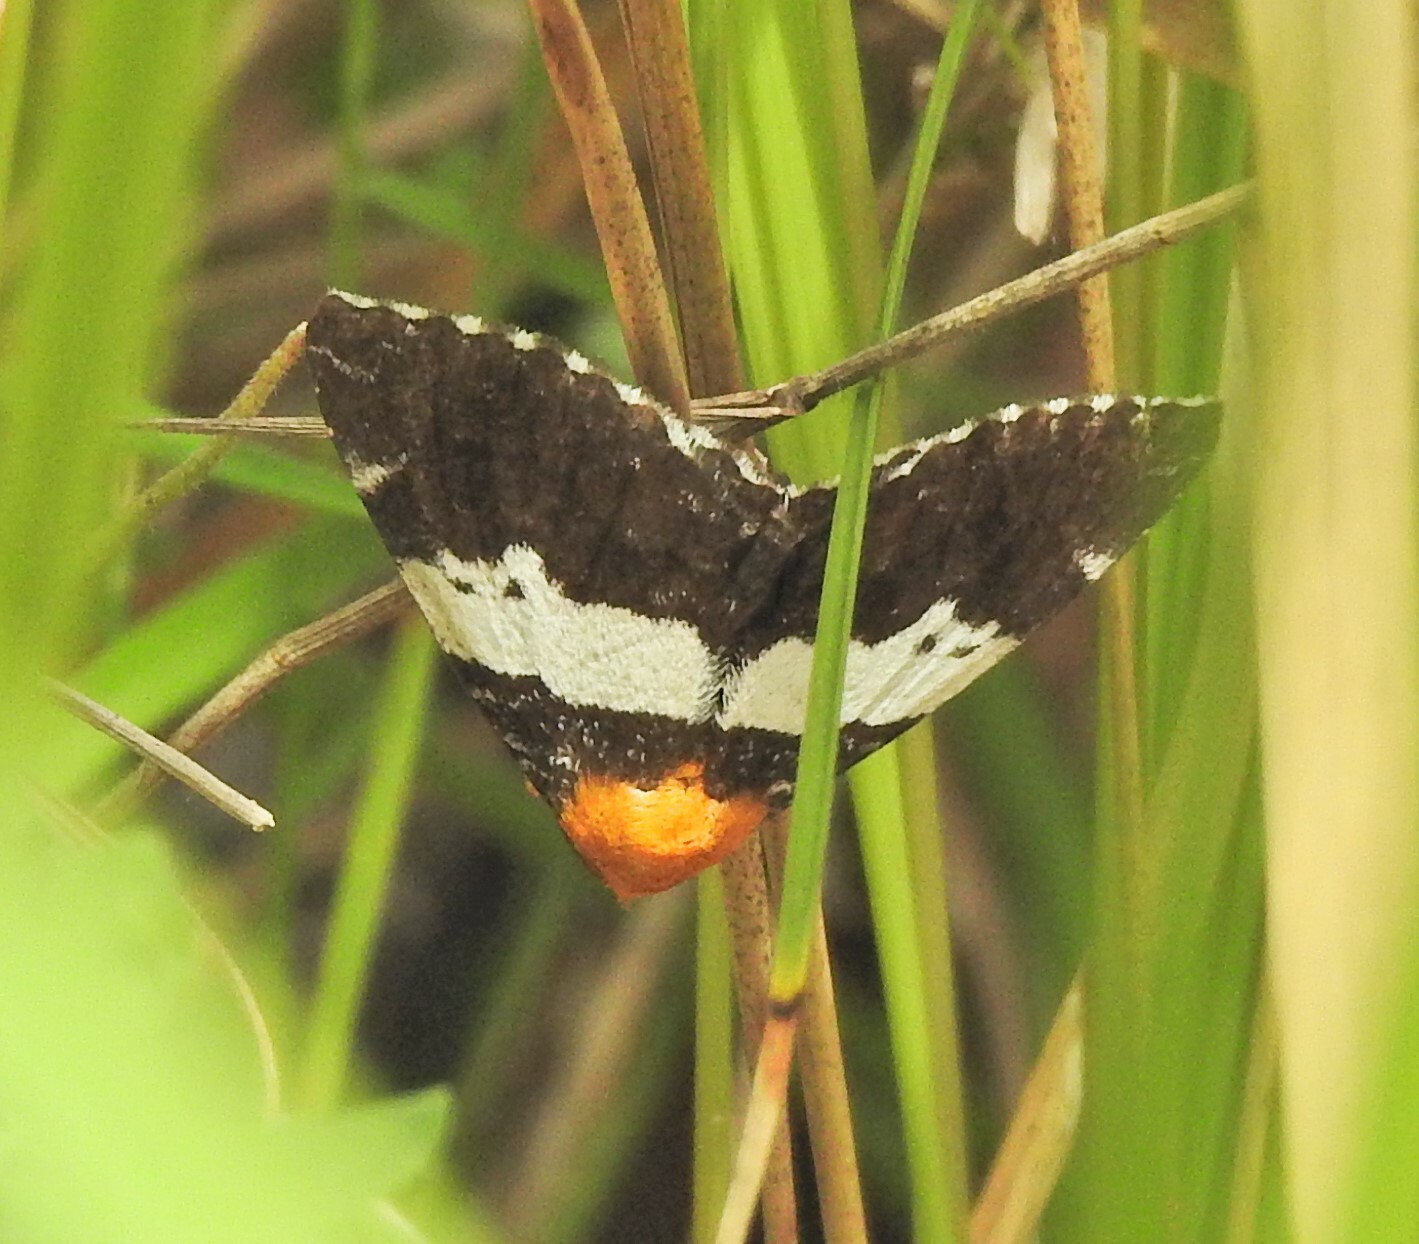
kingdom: Animalia
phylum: Arthropoda
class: Insecta
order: Lepidoptera
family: Erebidae
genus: Buzara
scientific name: Buzara latizona
